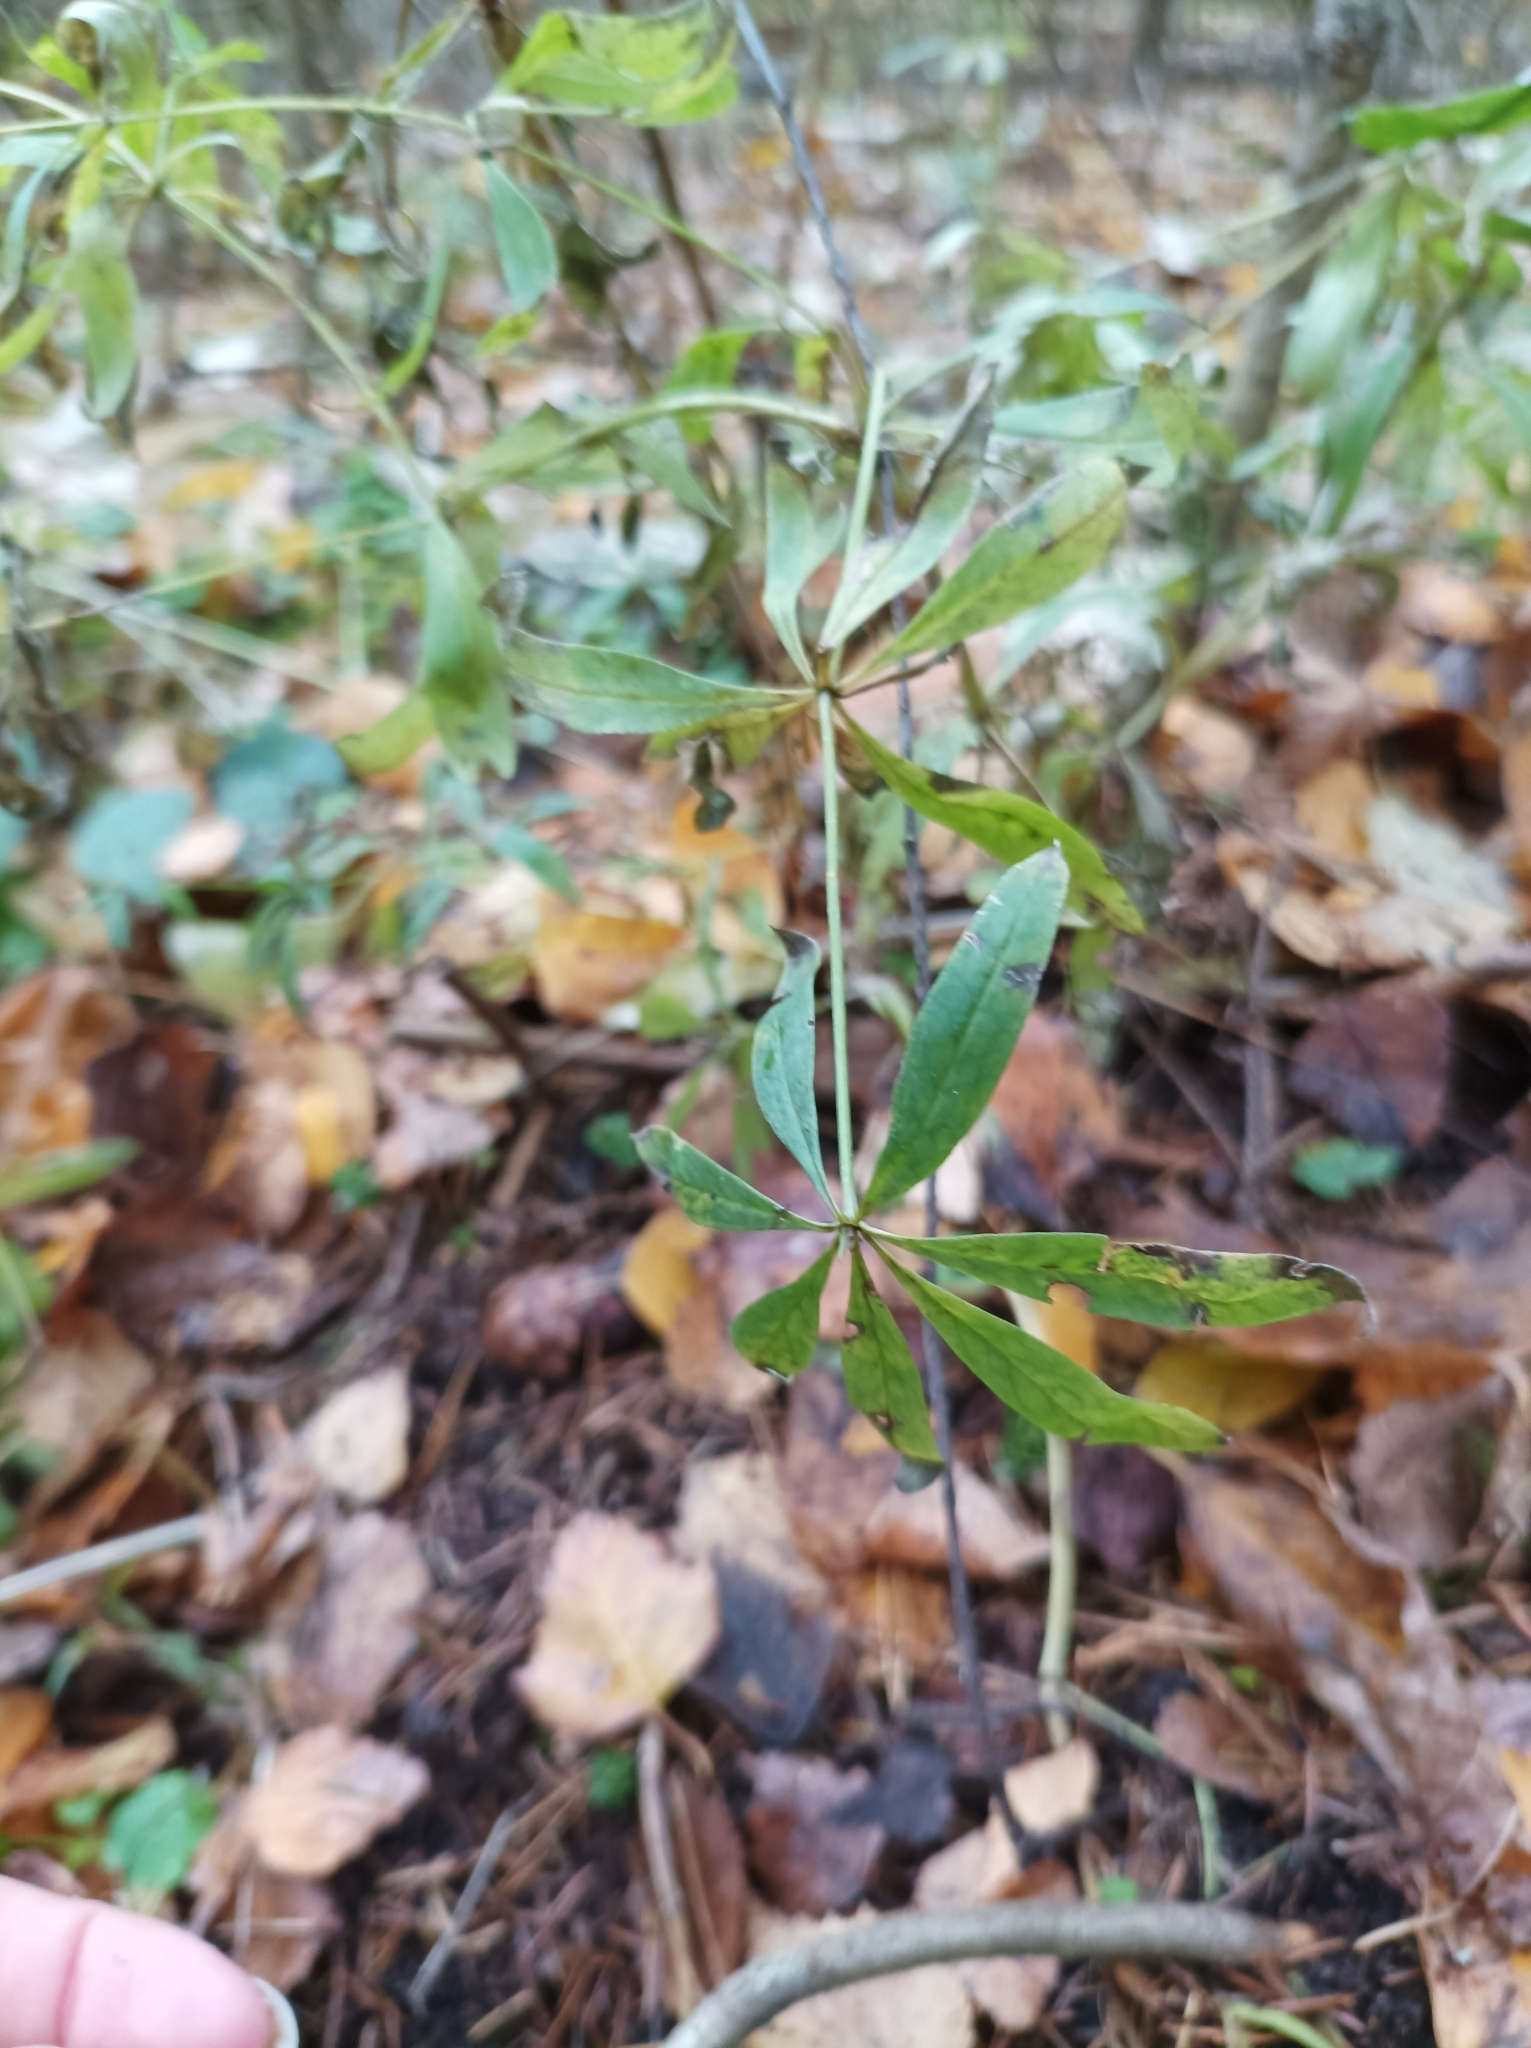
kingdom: Plantae
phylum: Tracheophyta
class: Magnoliopsida
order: Gentianales
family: Rubiaceae
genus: Galium
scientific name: Galium intermedium
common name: Bedstraw
